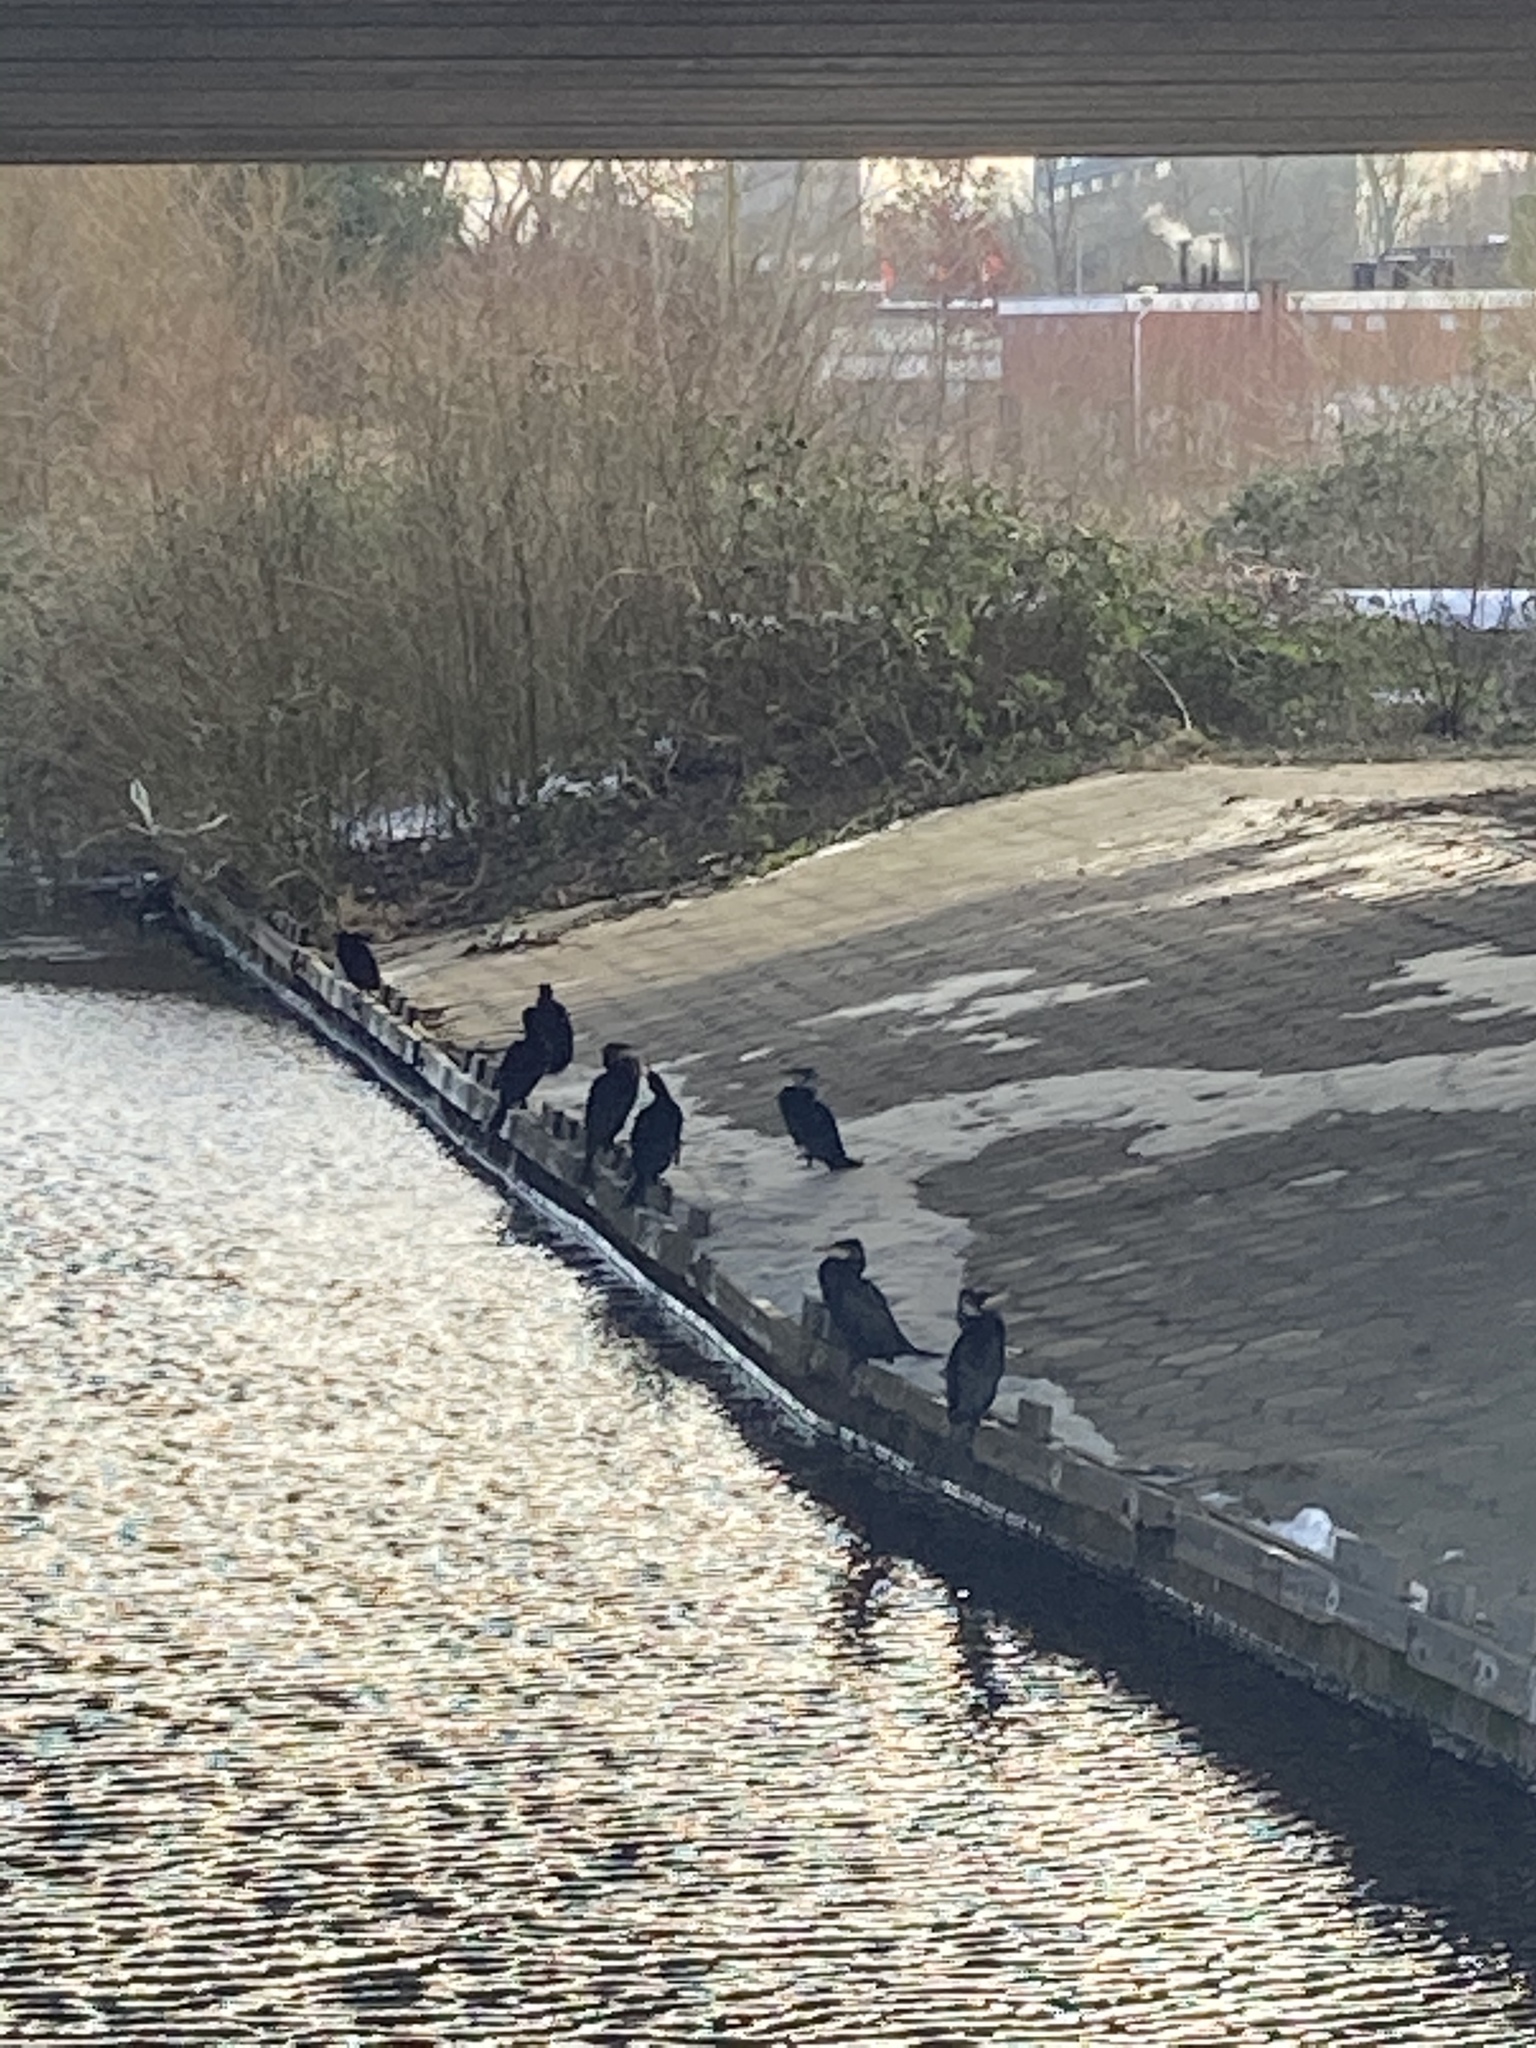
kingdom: Animalia
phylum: Chordata
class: Aves
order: Suliformes
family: Phalacrocoracidae
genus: Phalacrocorax
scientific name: Phalacrocorax carbo
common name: Great cormorant
